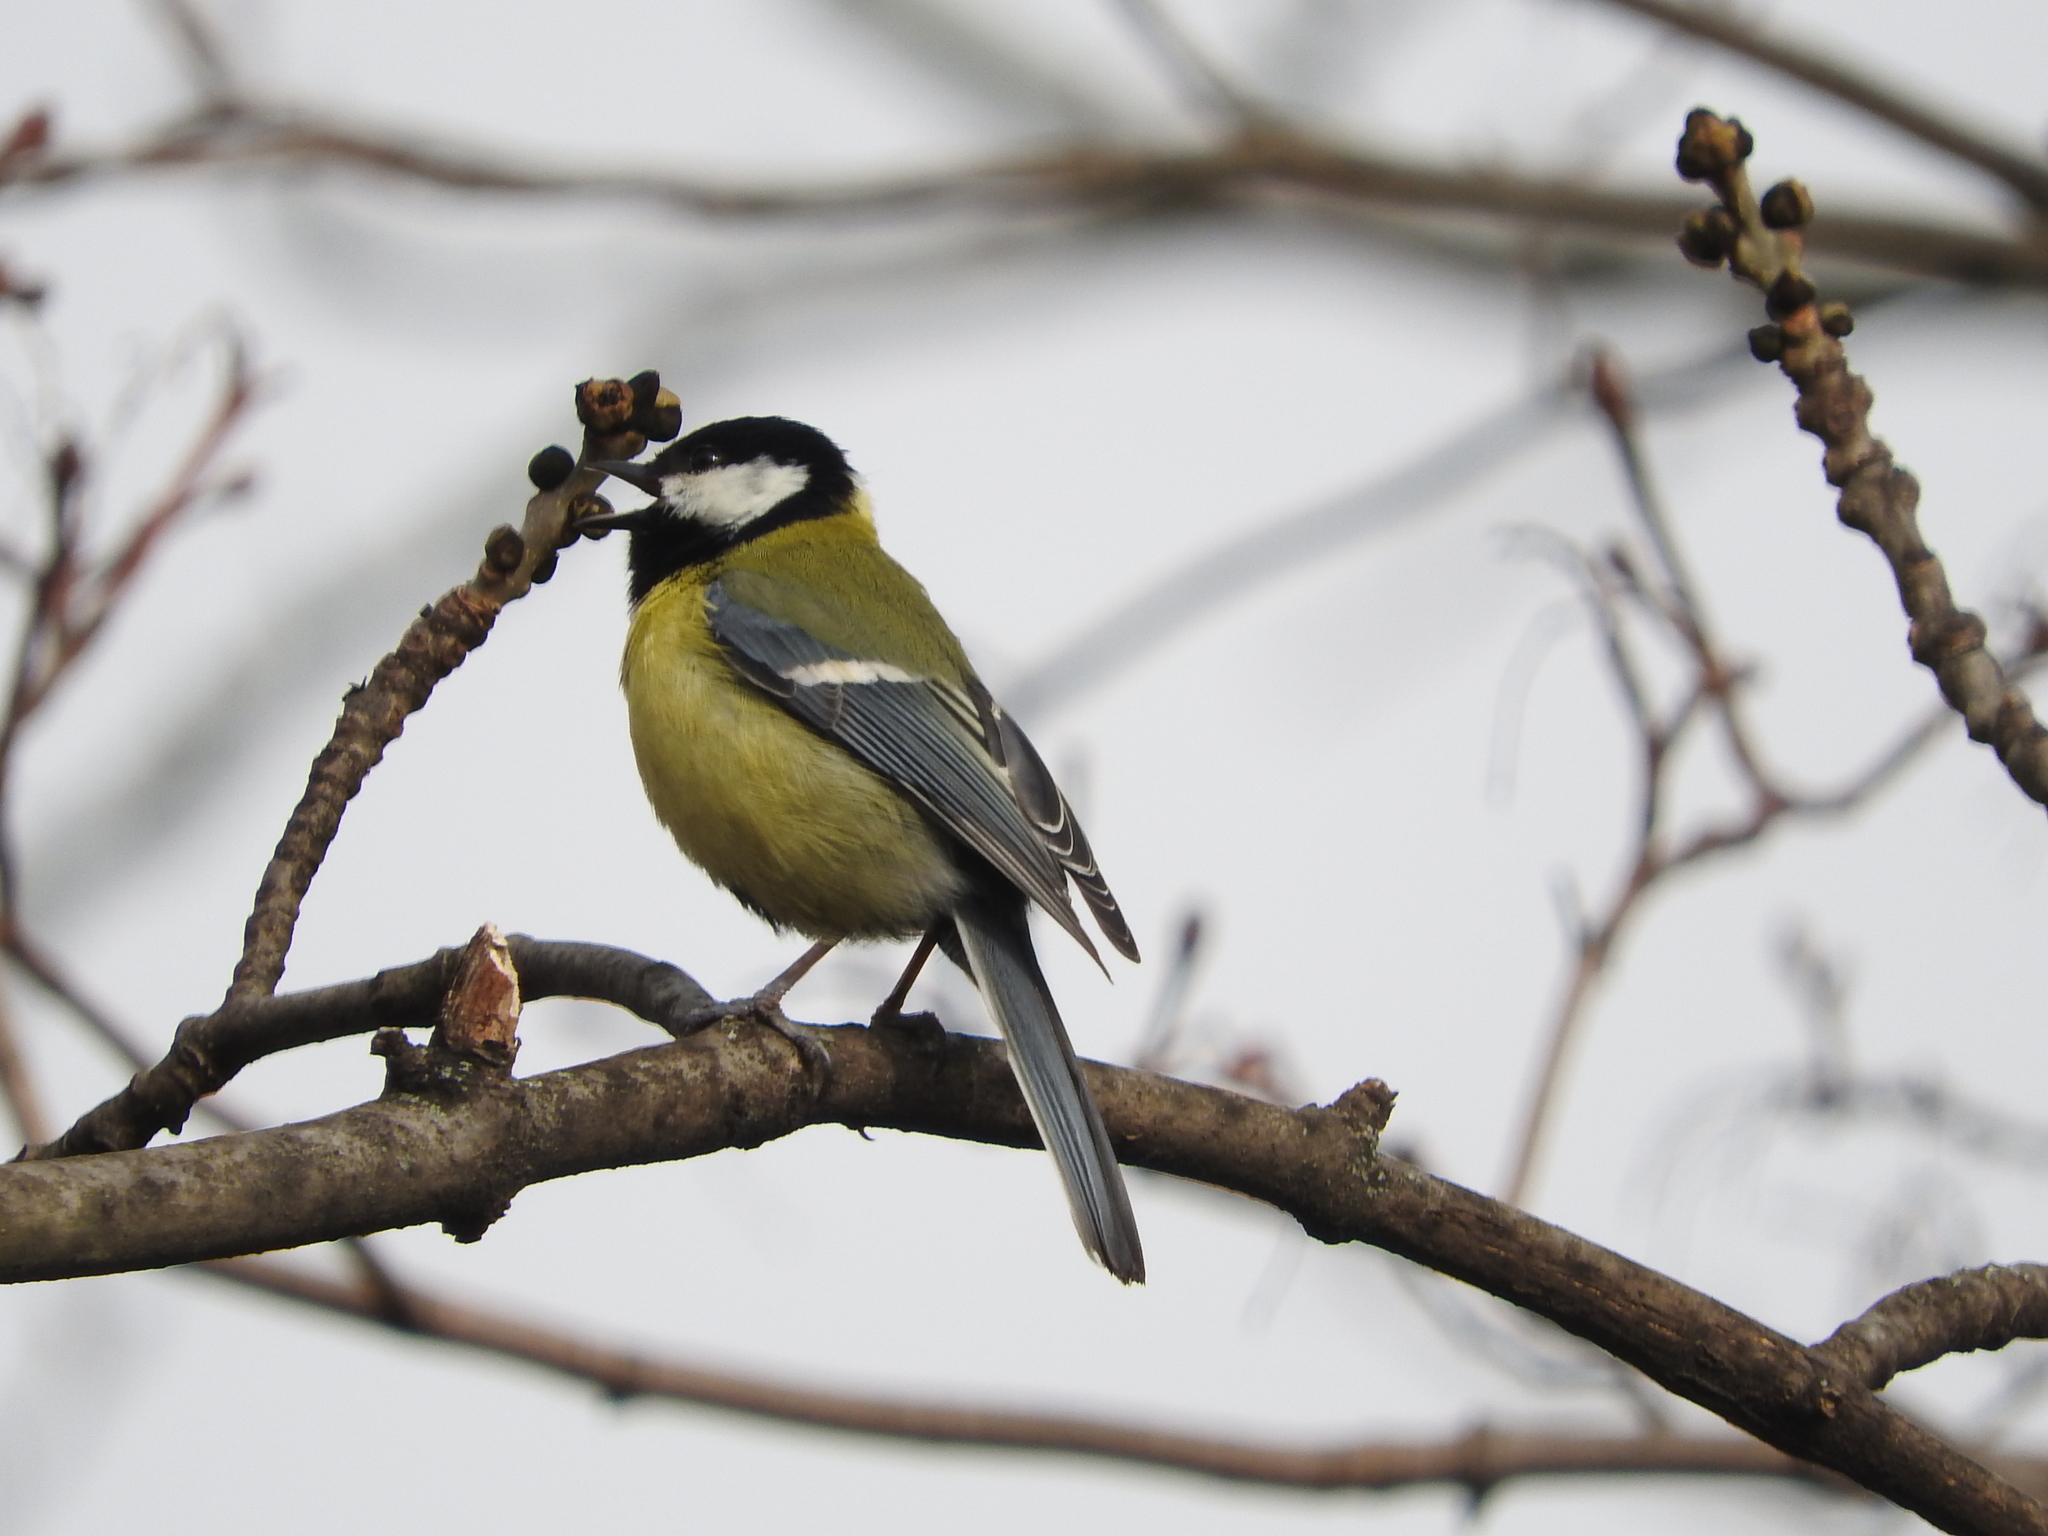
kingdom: Animalia
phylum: Chordata
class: Aves
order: Passeriformes
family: Paridae
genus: Parus
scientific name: Parus major
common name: Great tit
